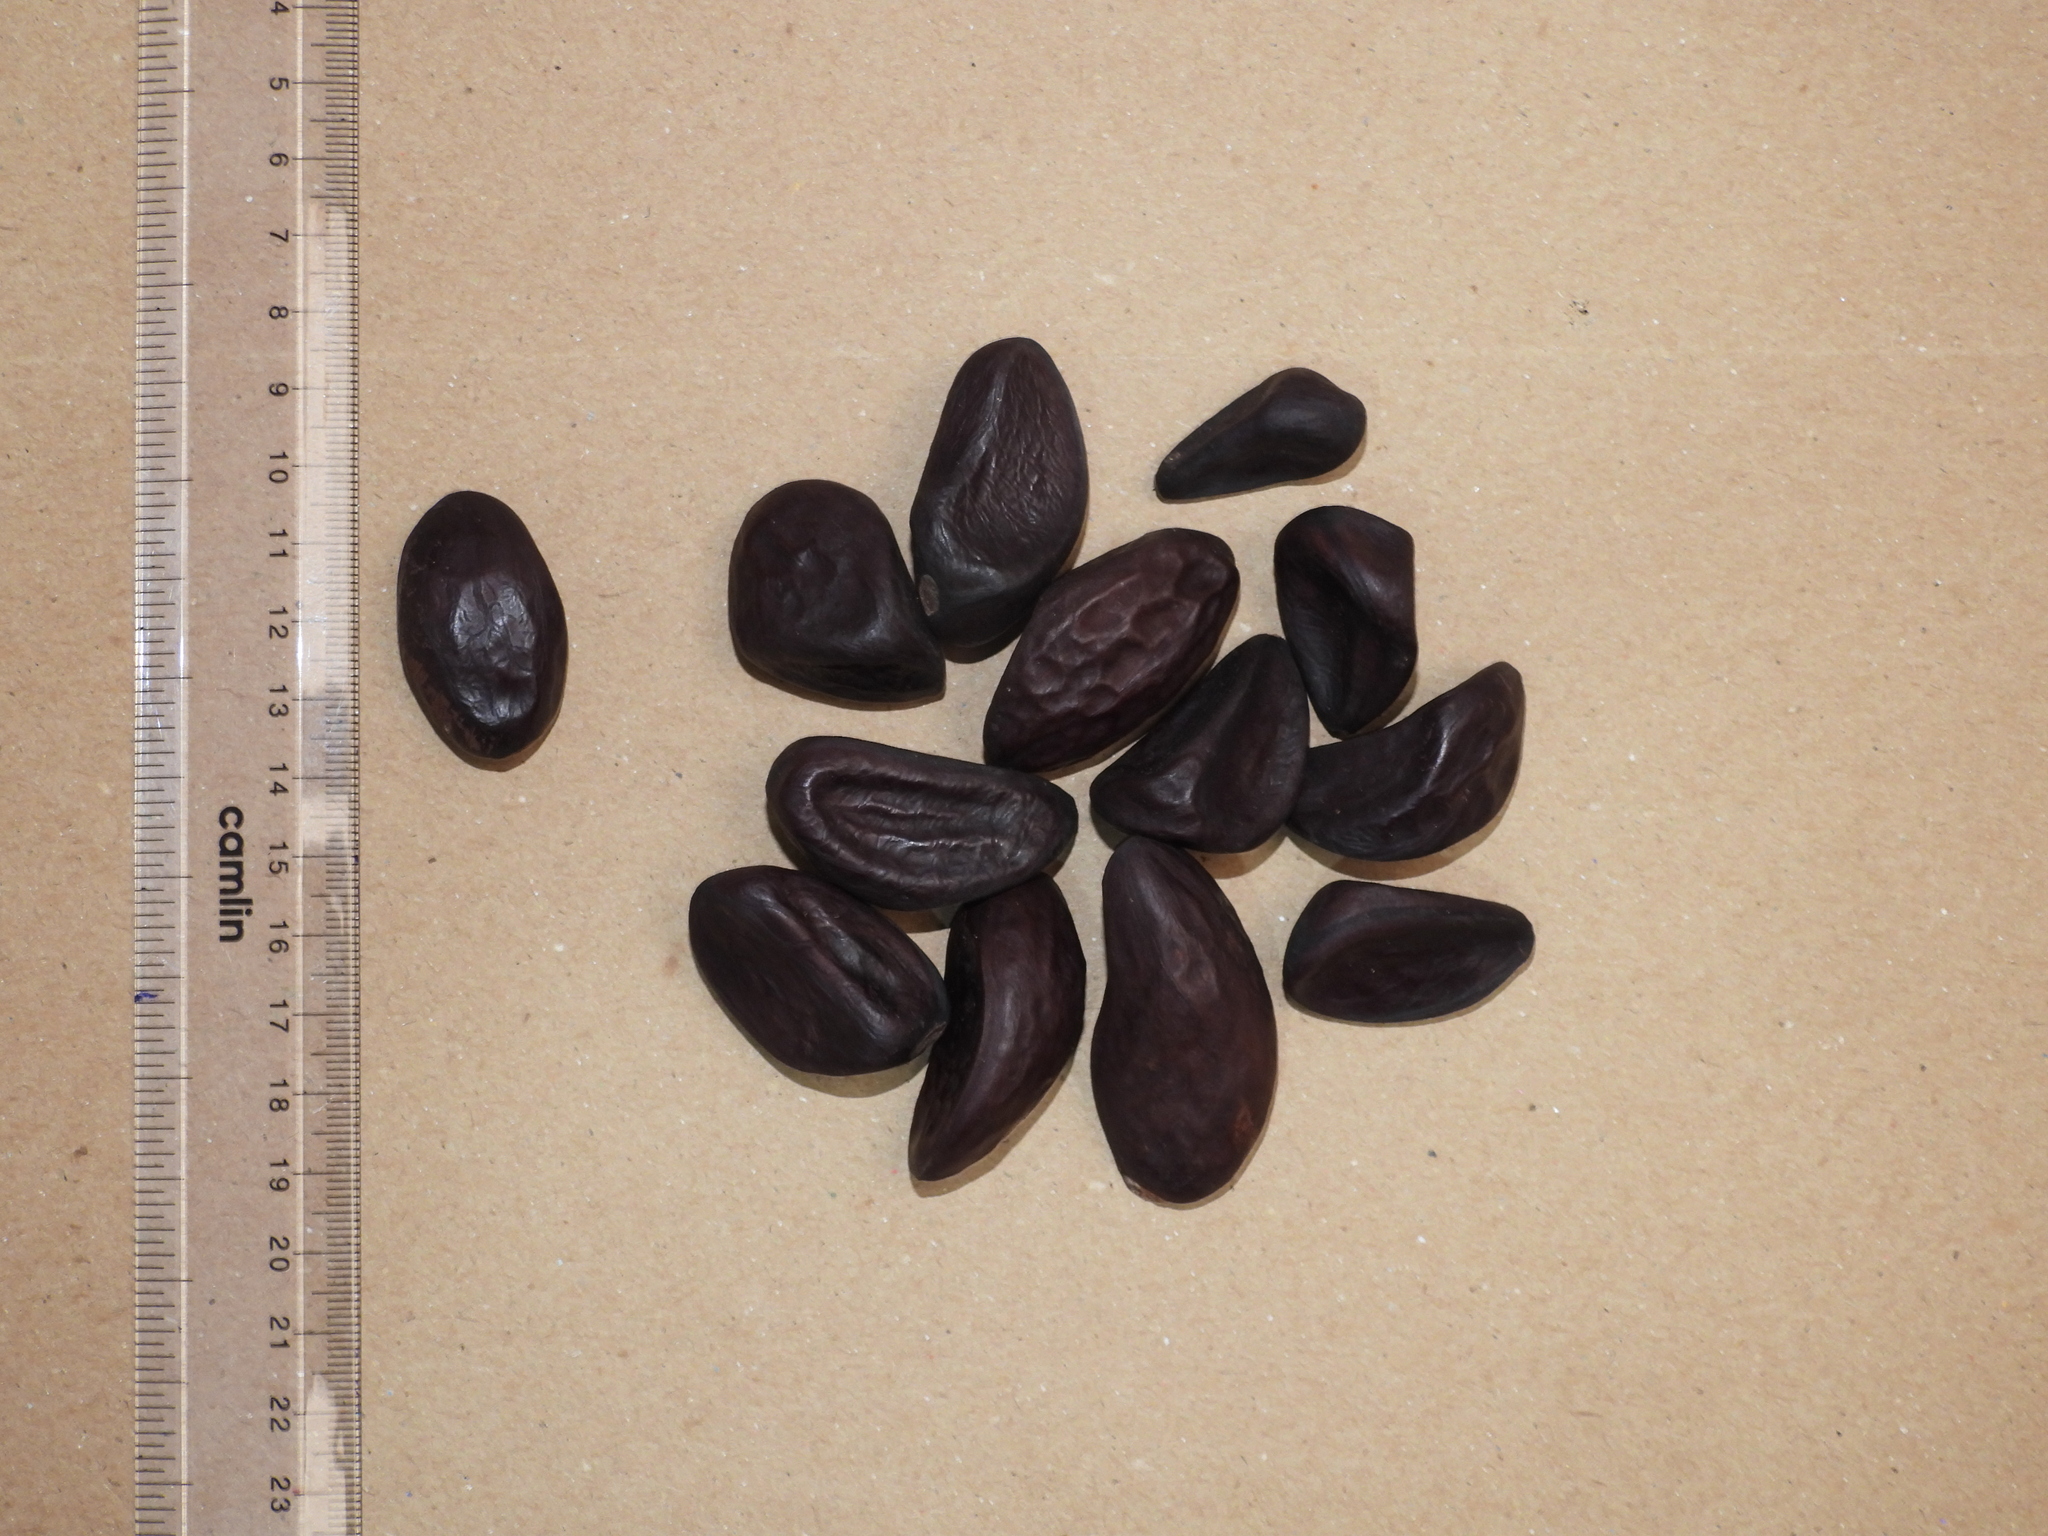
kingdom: Plantae
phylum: Tracheophyta
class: Magnoliopsida
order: Malvales
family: Malvaceae
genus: Cullenia
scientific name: Cullenia exarillata
